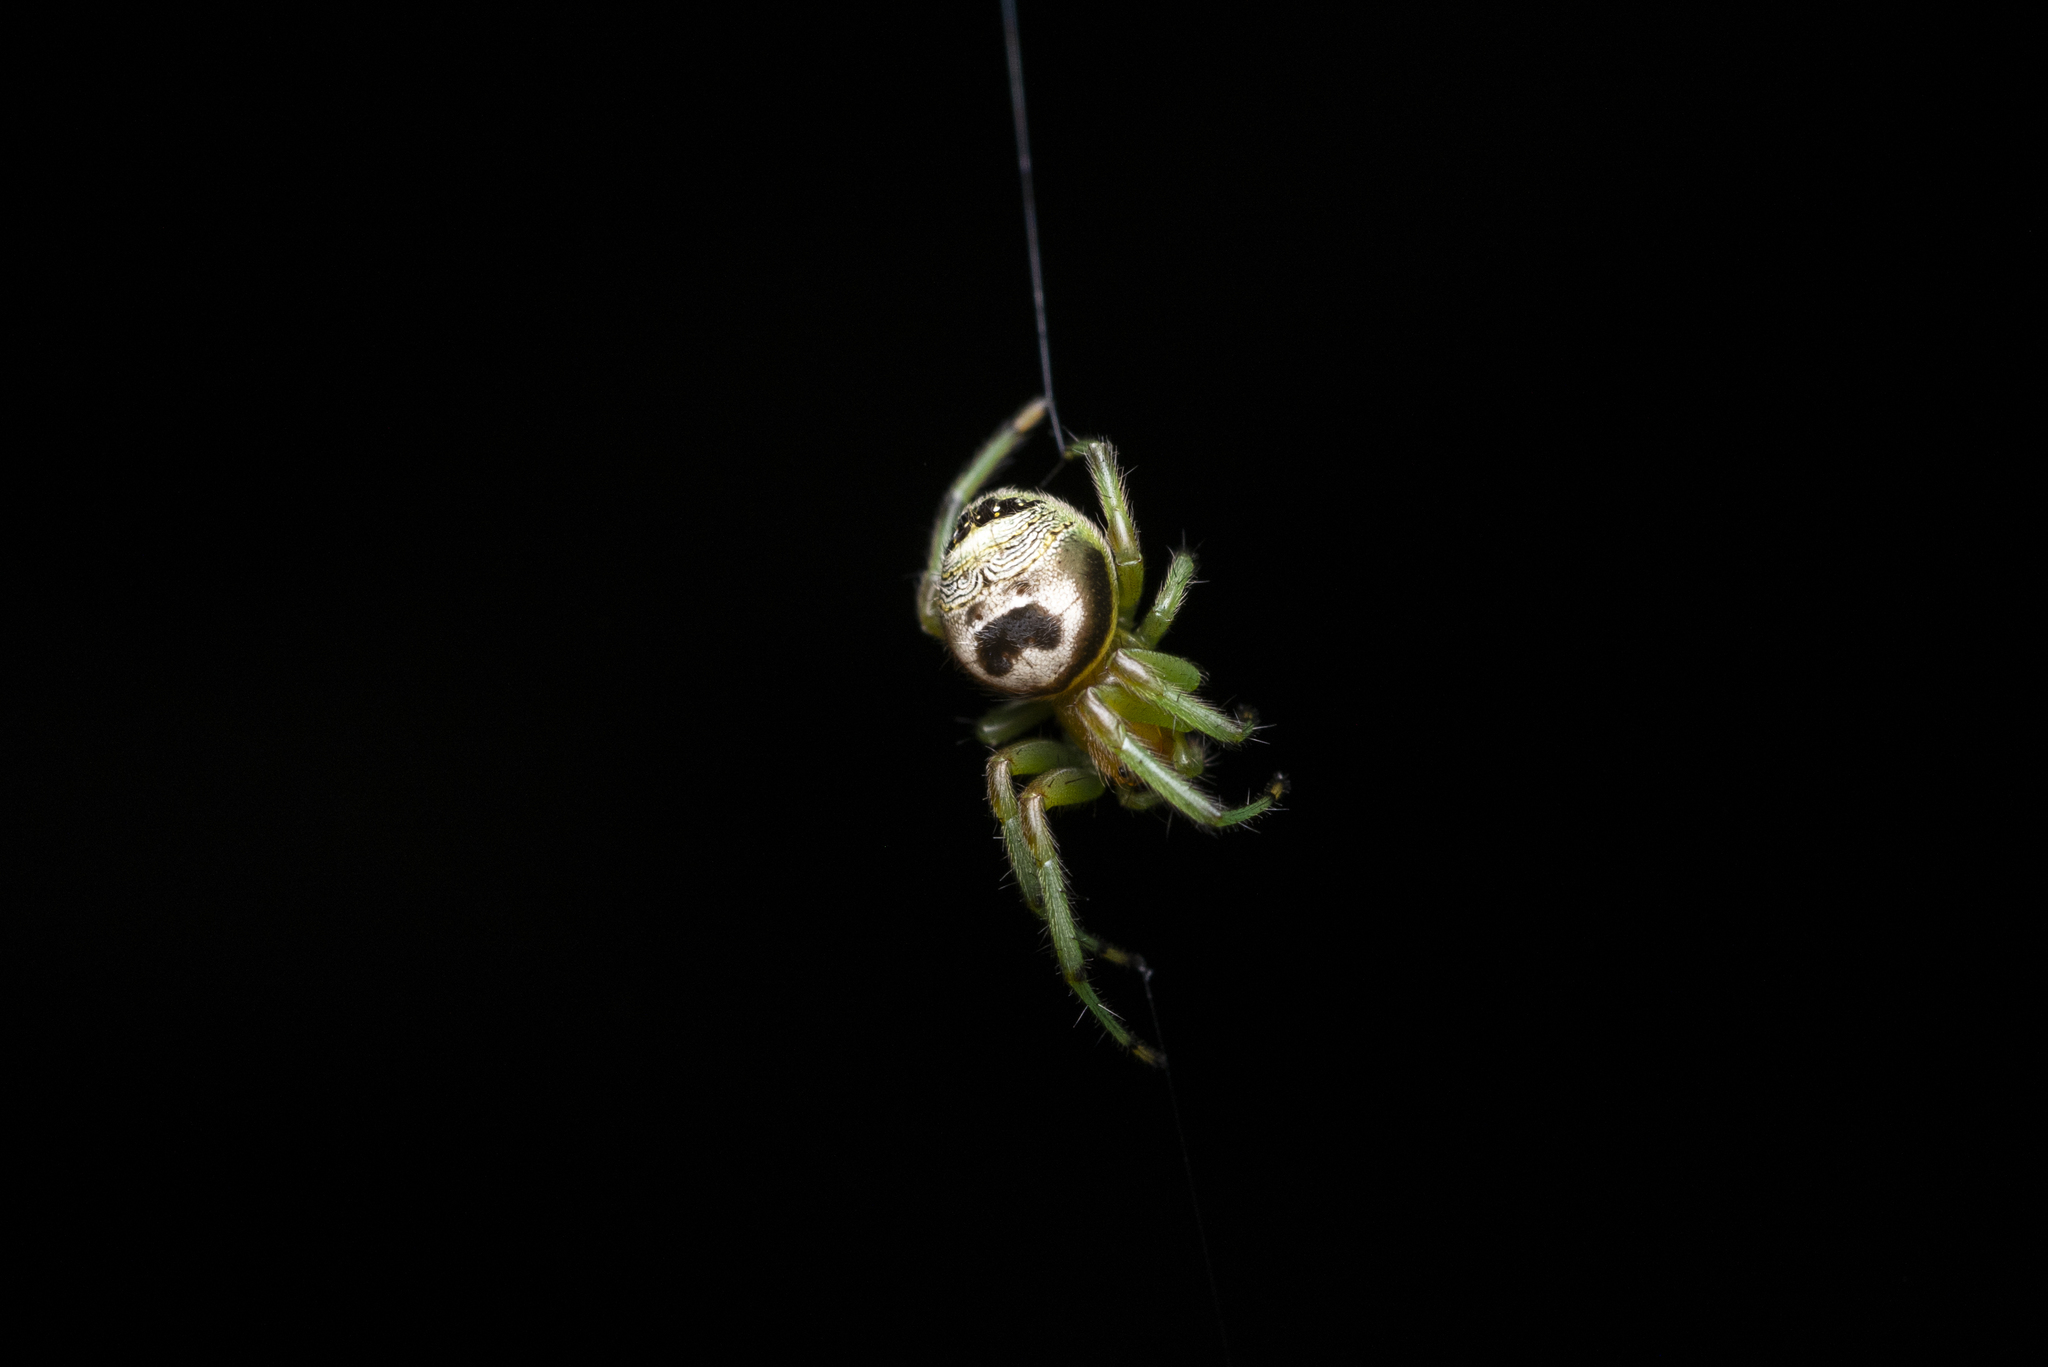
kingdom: Animalia
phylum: Arthropoda
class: Arachnida
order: Araneae
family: Araneidae
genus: Bijoaraneus
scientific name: Bijoaraneus mitificus
